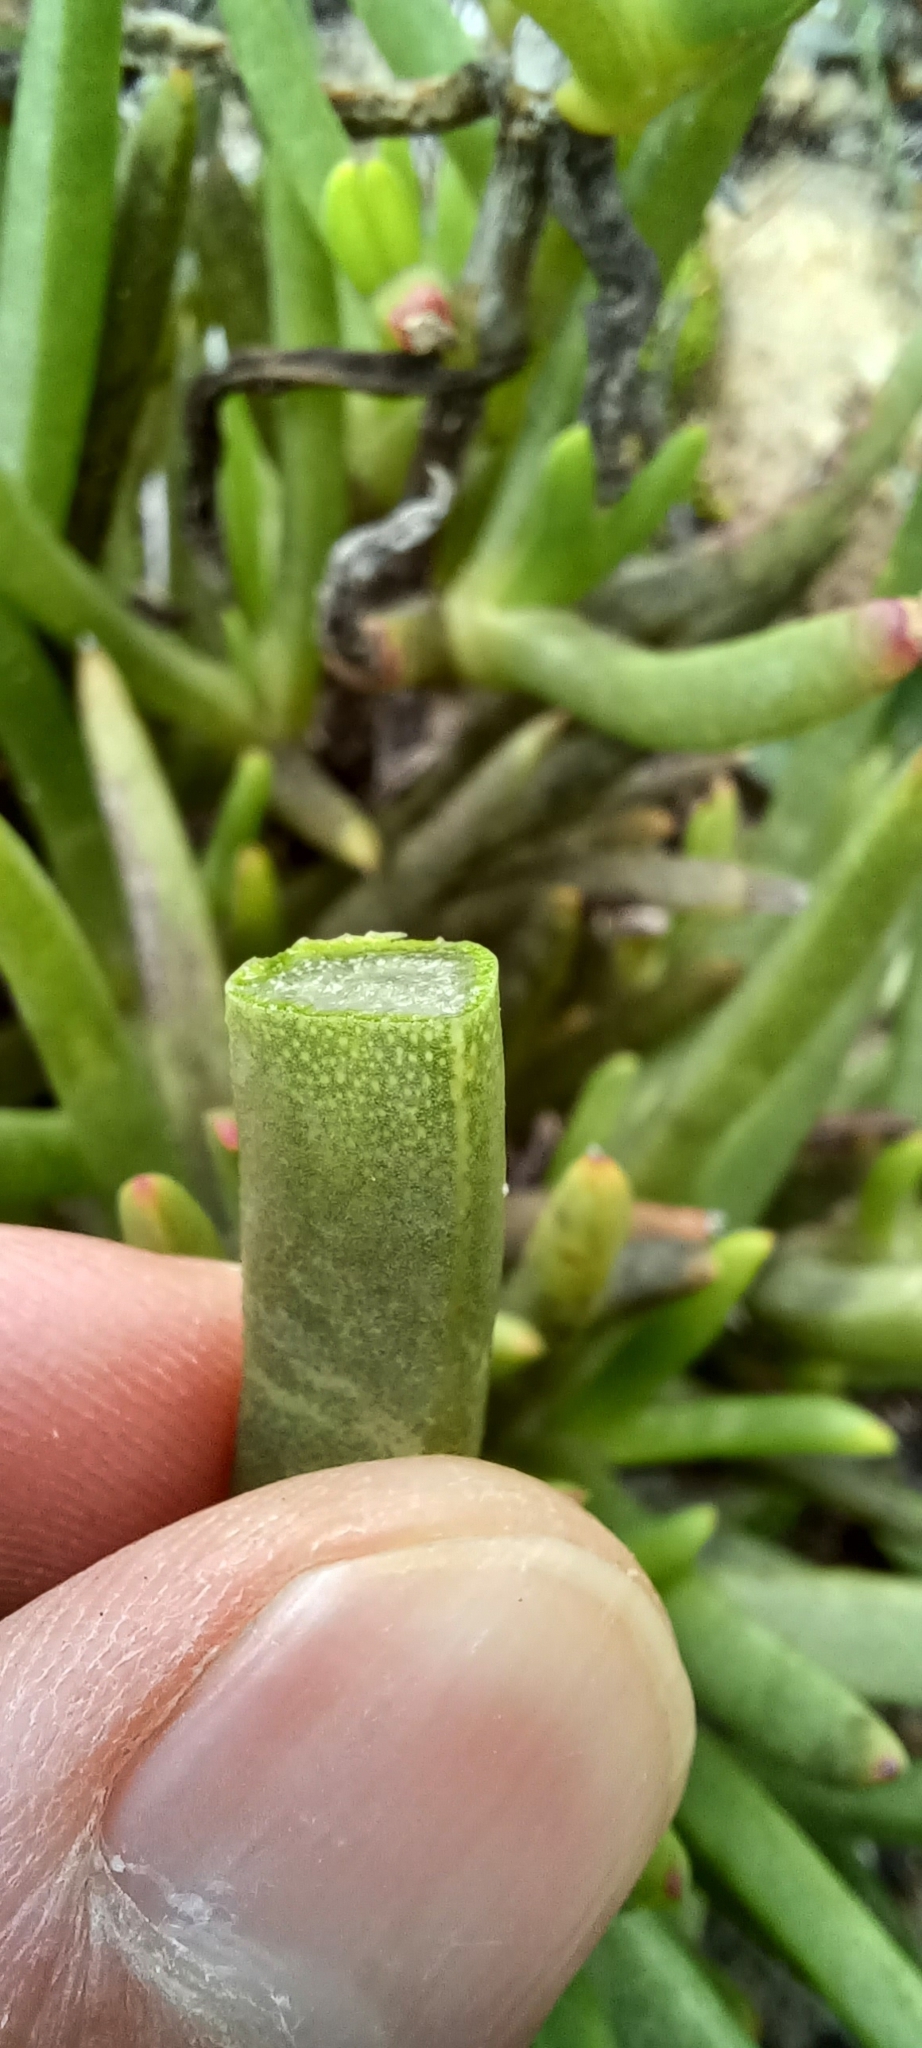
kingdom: Plantae
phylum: Tracheophyta
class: Magnoliopsida
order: Caryophyllales
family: Aizoaceae
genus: Ruschia
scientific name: Ruschia diversifolia
